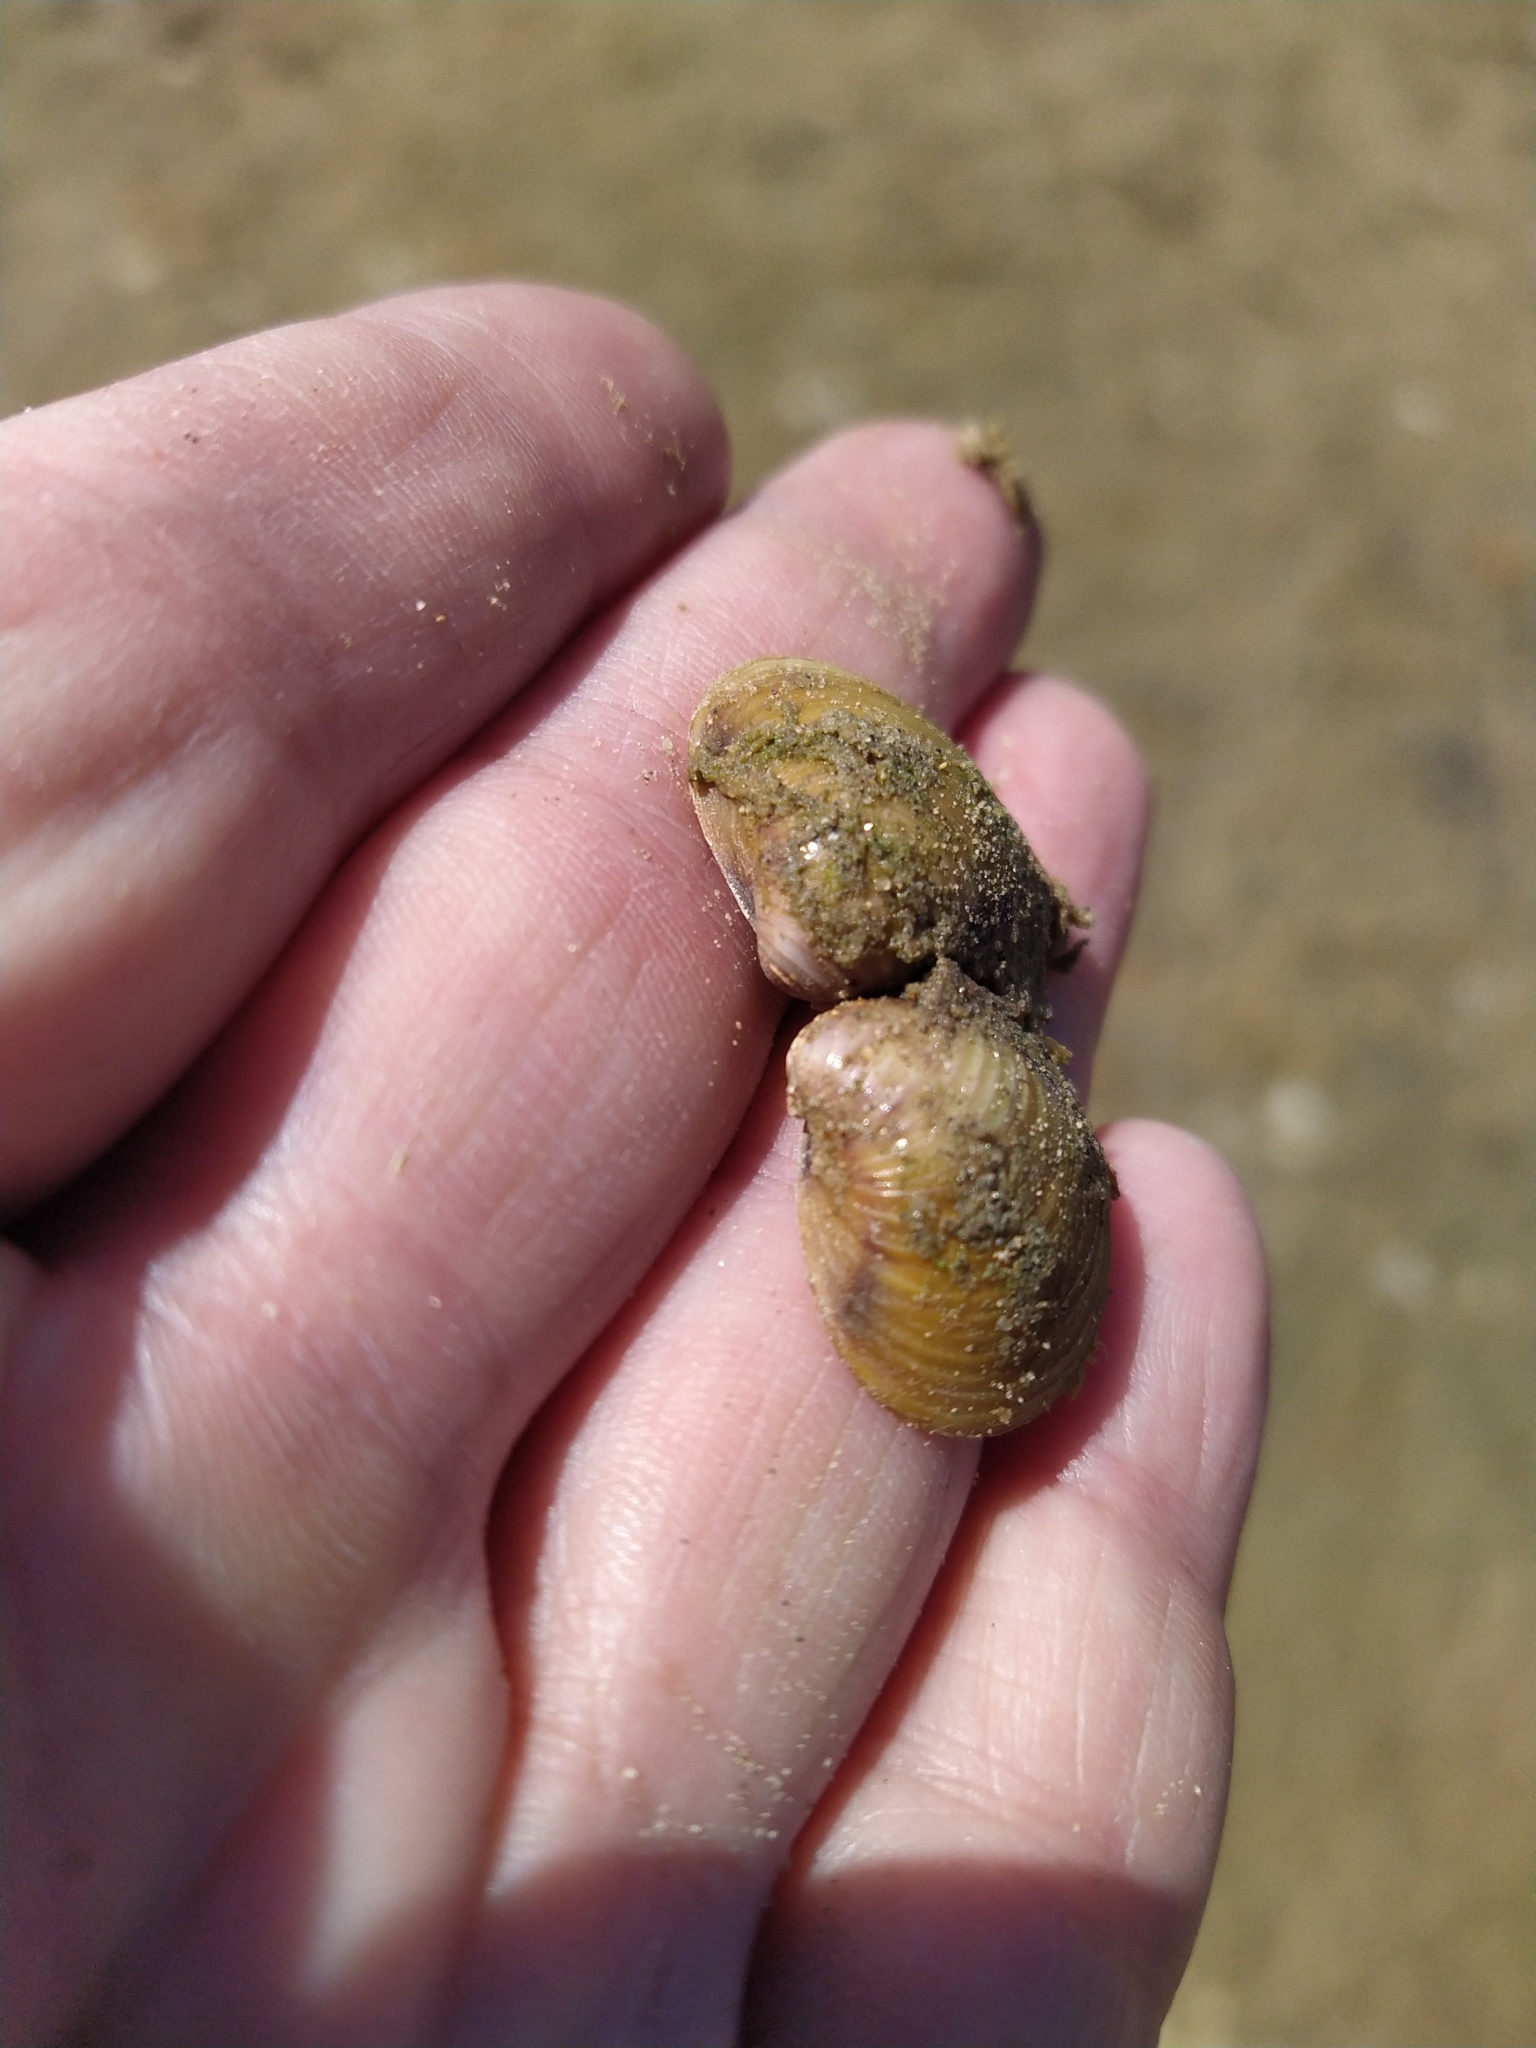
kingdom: Animalia
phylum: Mollusca
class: Bivalvia
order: Venerida
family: Cyrenidae
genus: Corbicula
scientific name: Corbicula fluminea
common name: Asian clam
